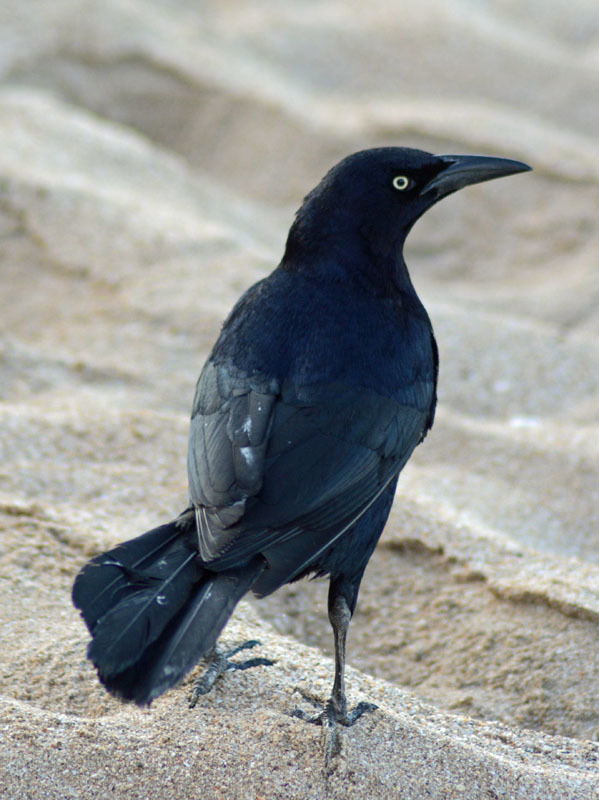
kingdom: Animalia
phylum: Chordata
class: Aves
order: Passeriformes
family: Icteridae
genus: Quiscalus
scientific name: Quiscalus mexicanus
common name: Great-tailed grackle
